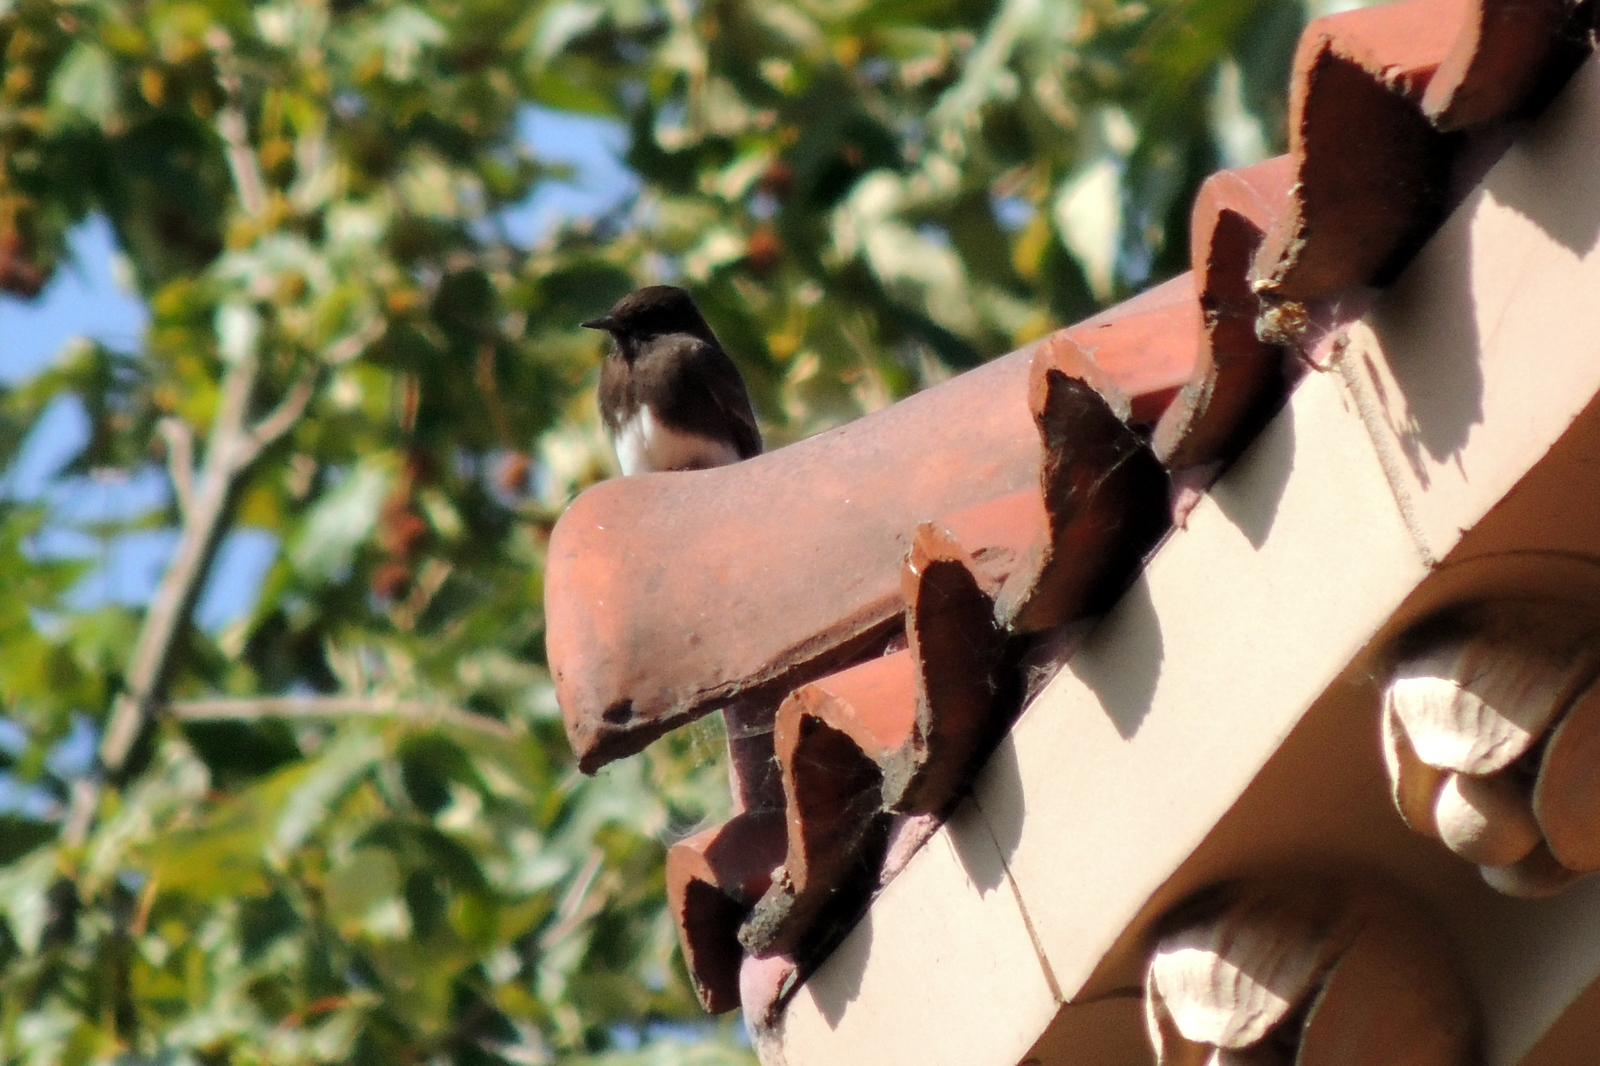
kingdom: Animalia
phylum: Chordata
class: Aves
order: Passeriformes
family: Tyrannidae
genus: Sayornis
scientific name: Sayornis nigricans
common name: Black phoebe
